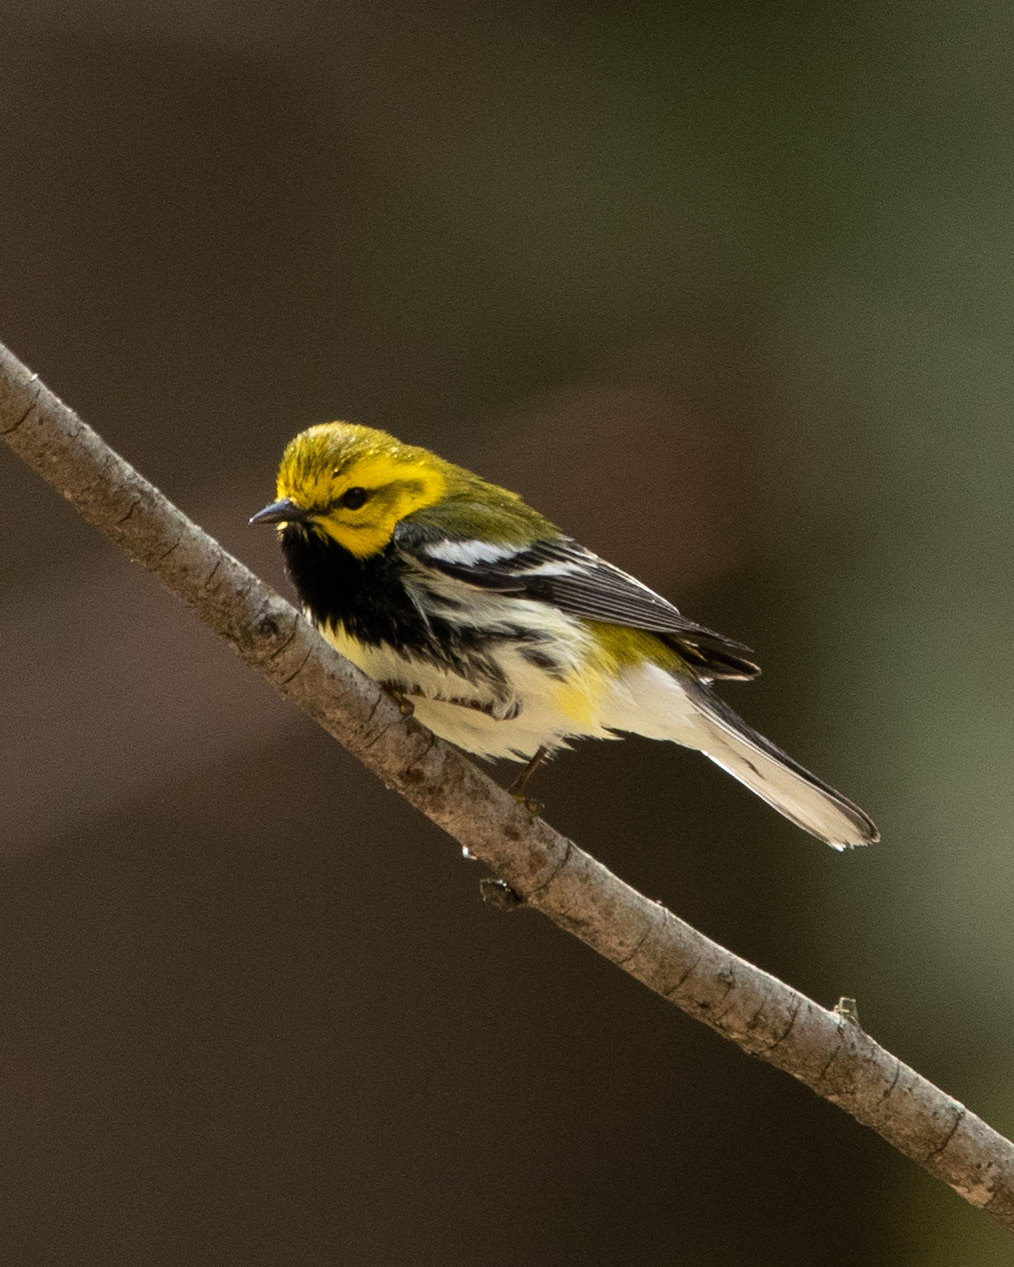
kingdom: Animalia
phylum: Chordata
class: Aves
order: Passeriformes
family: Parulidae
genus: Setophaga
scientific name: Setophaga virens
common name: Black-throated green warbler
